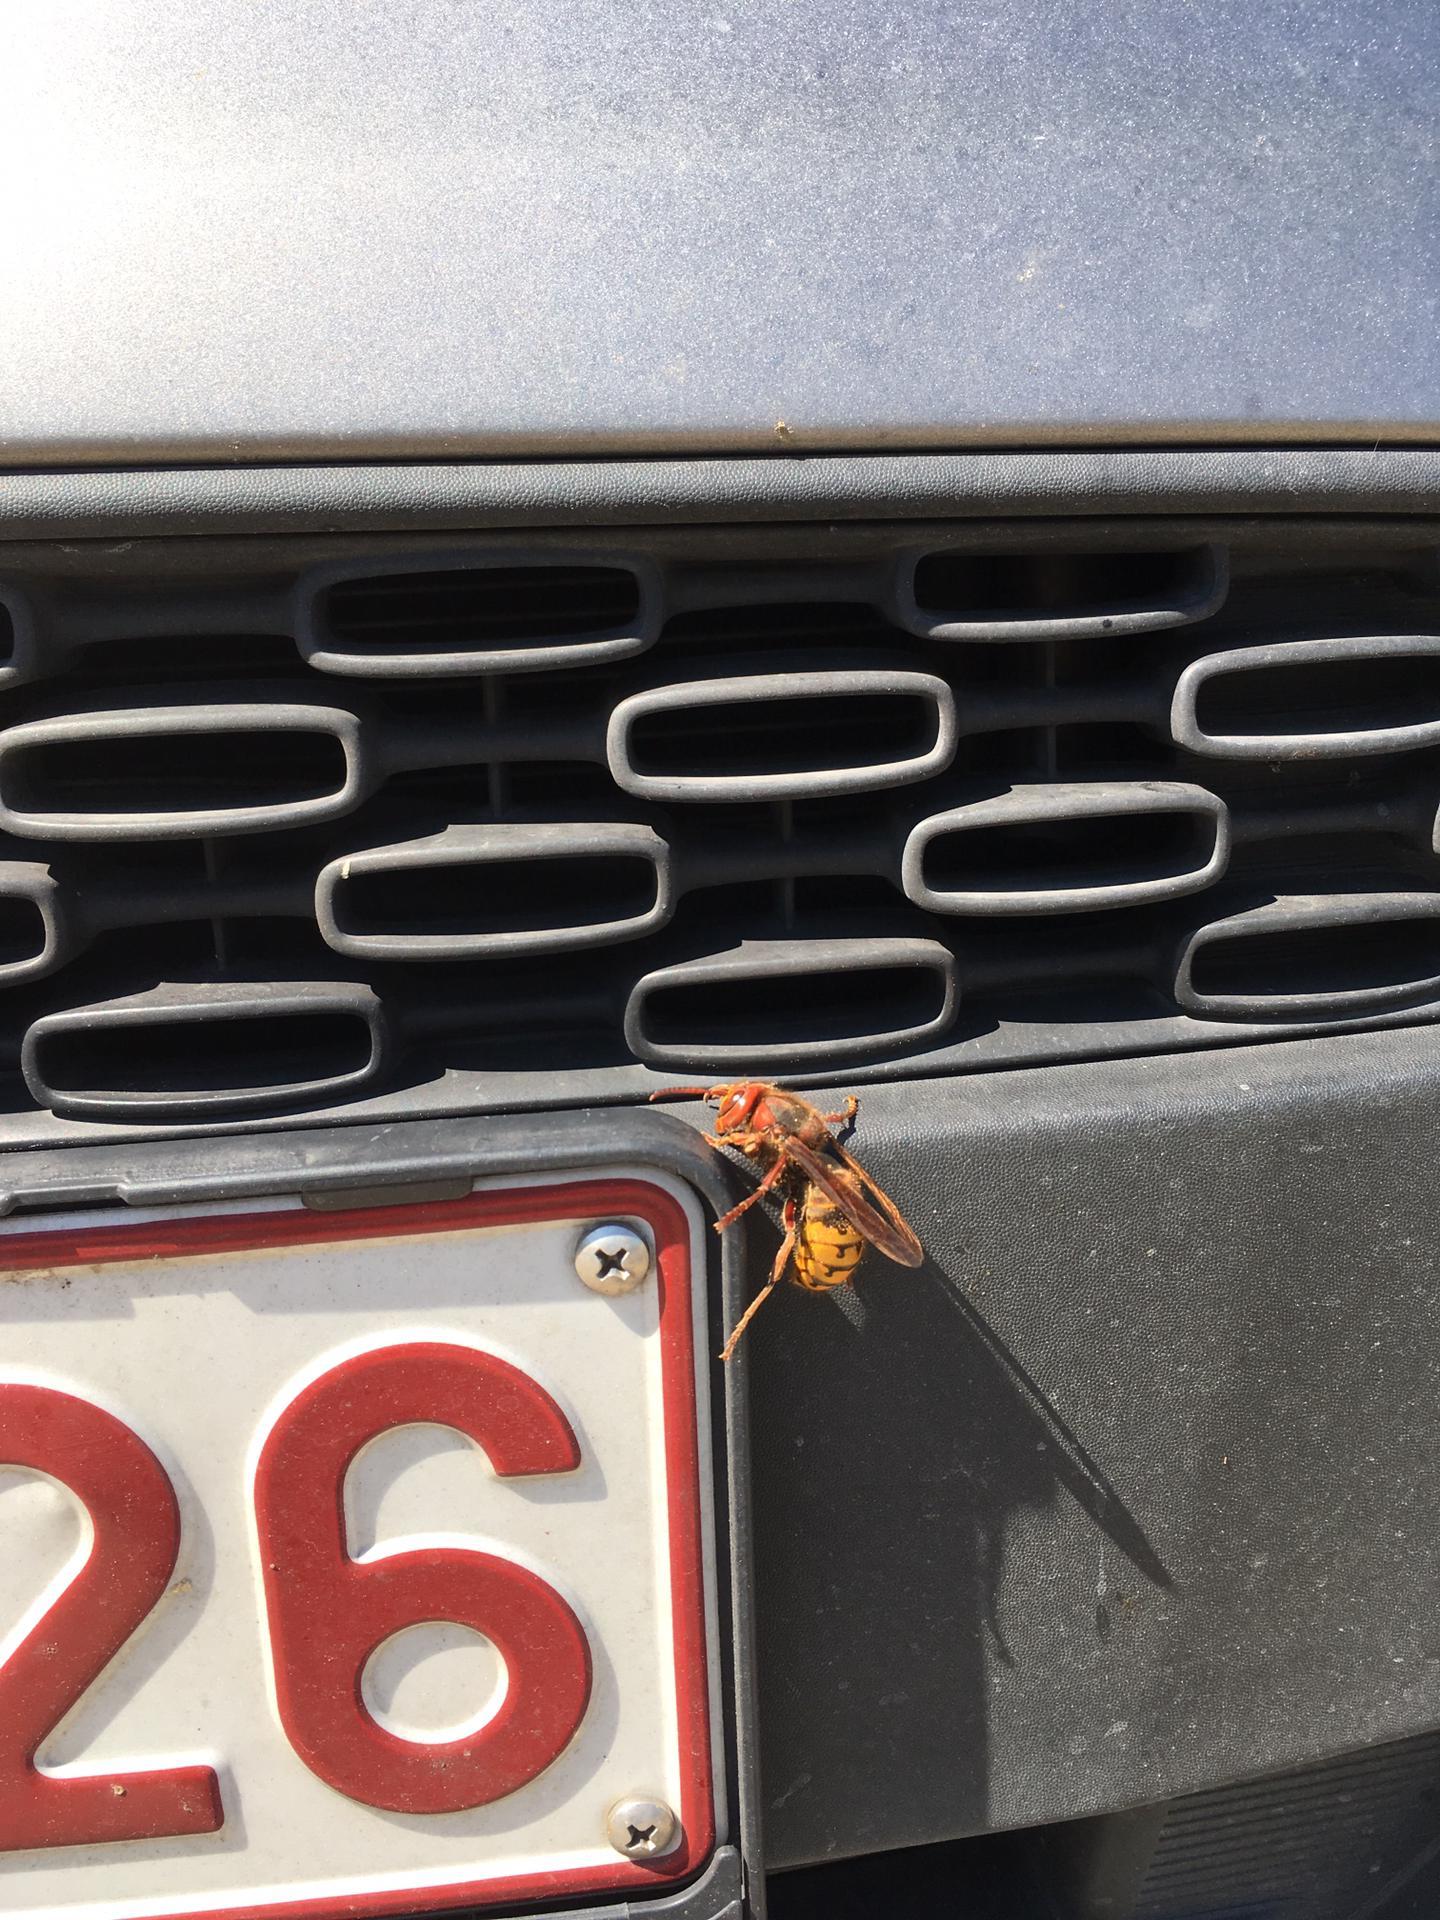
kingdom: Animalia
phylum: Arthropoda
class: Insecta
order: Hymenoptera
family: Vespidae
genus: Vespa
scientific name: Vespa crabro
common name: Hornet
